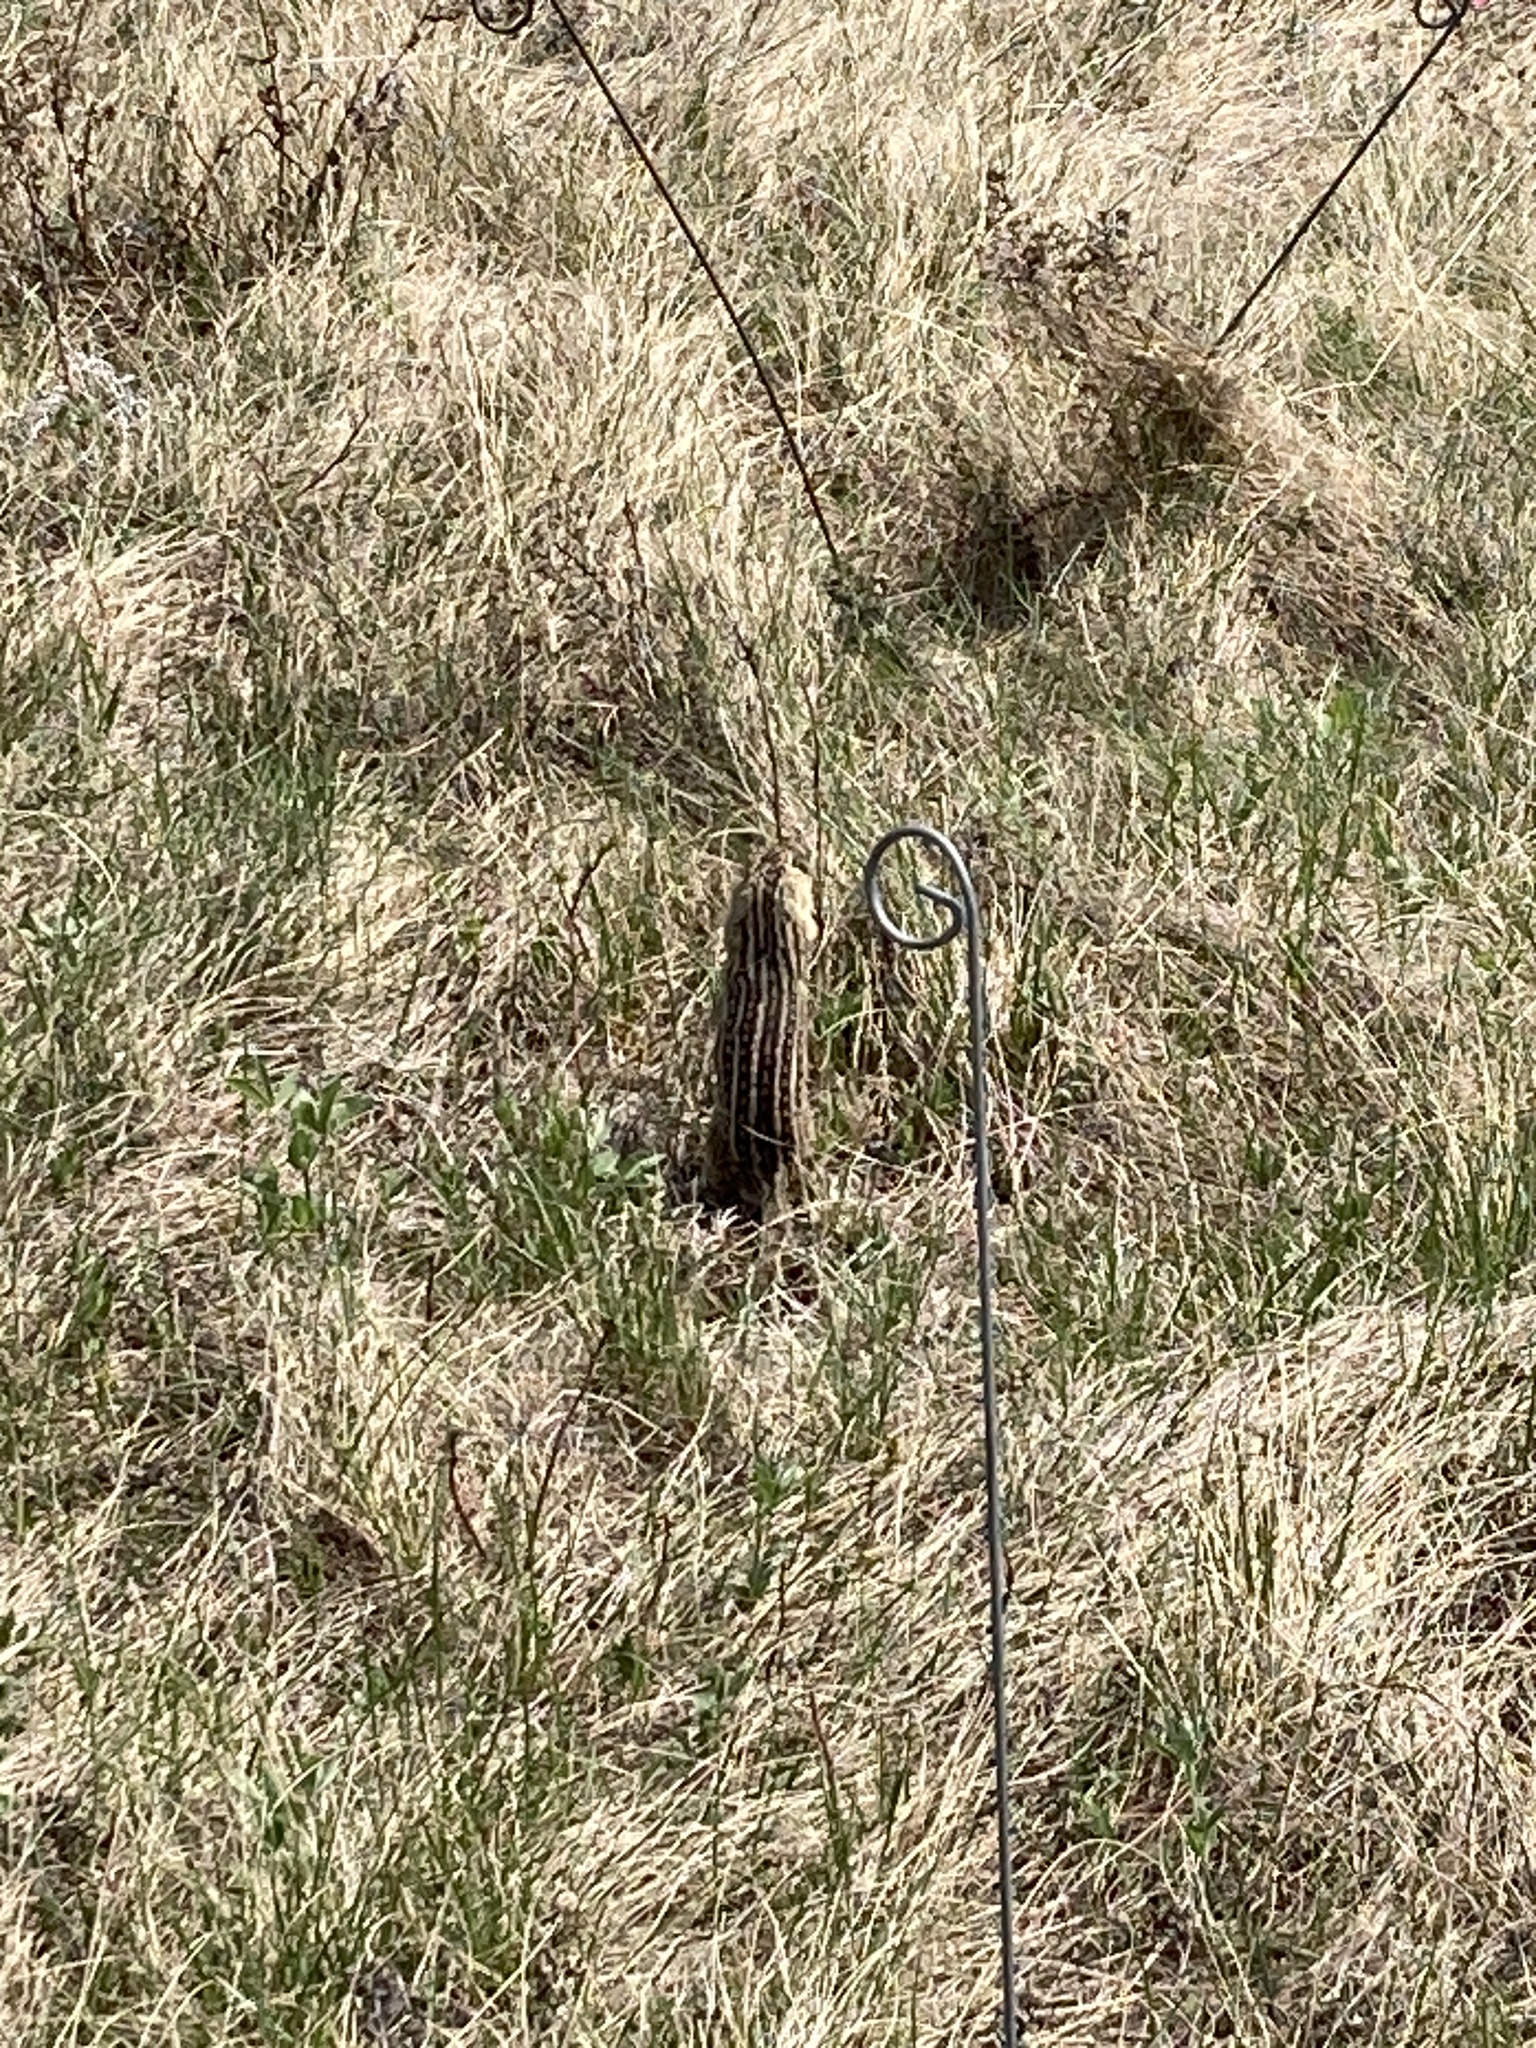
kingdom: Animalia
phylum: Chordata
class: Mammalia
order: Rodentia
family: Sciuridae
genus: Ictidomys
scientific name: Ictidomys tridecemlineatus
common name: Thirteen-lined ground squirrel
